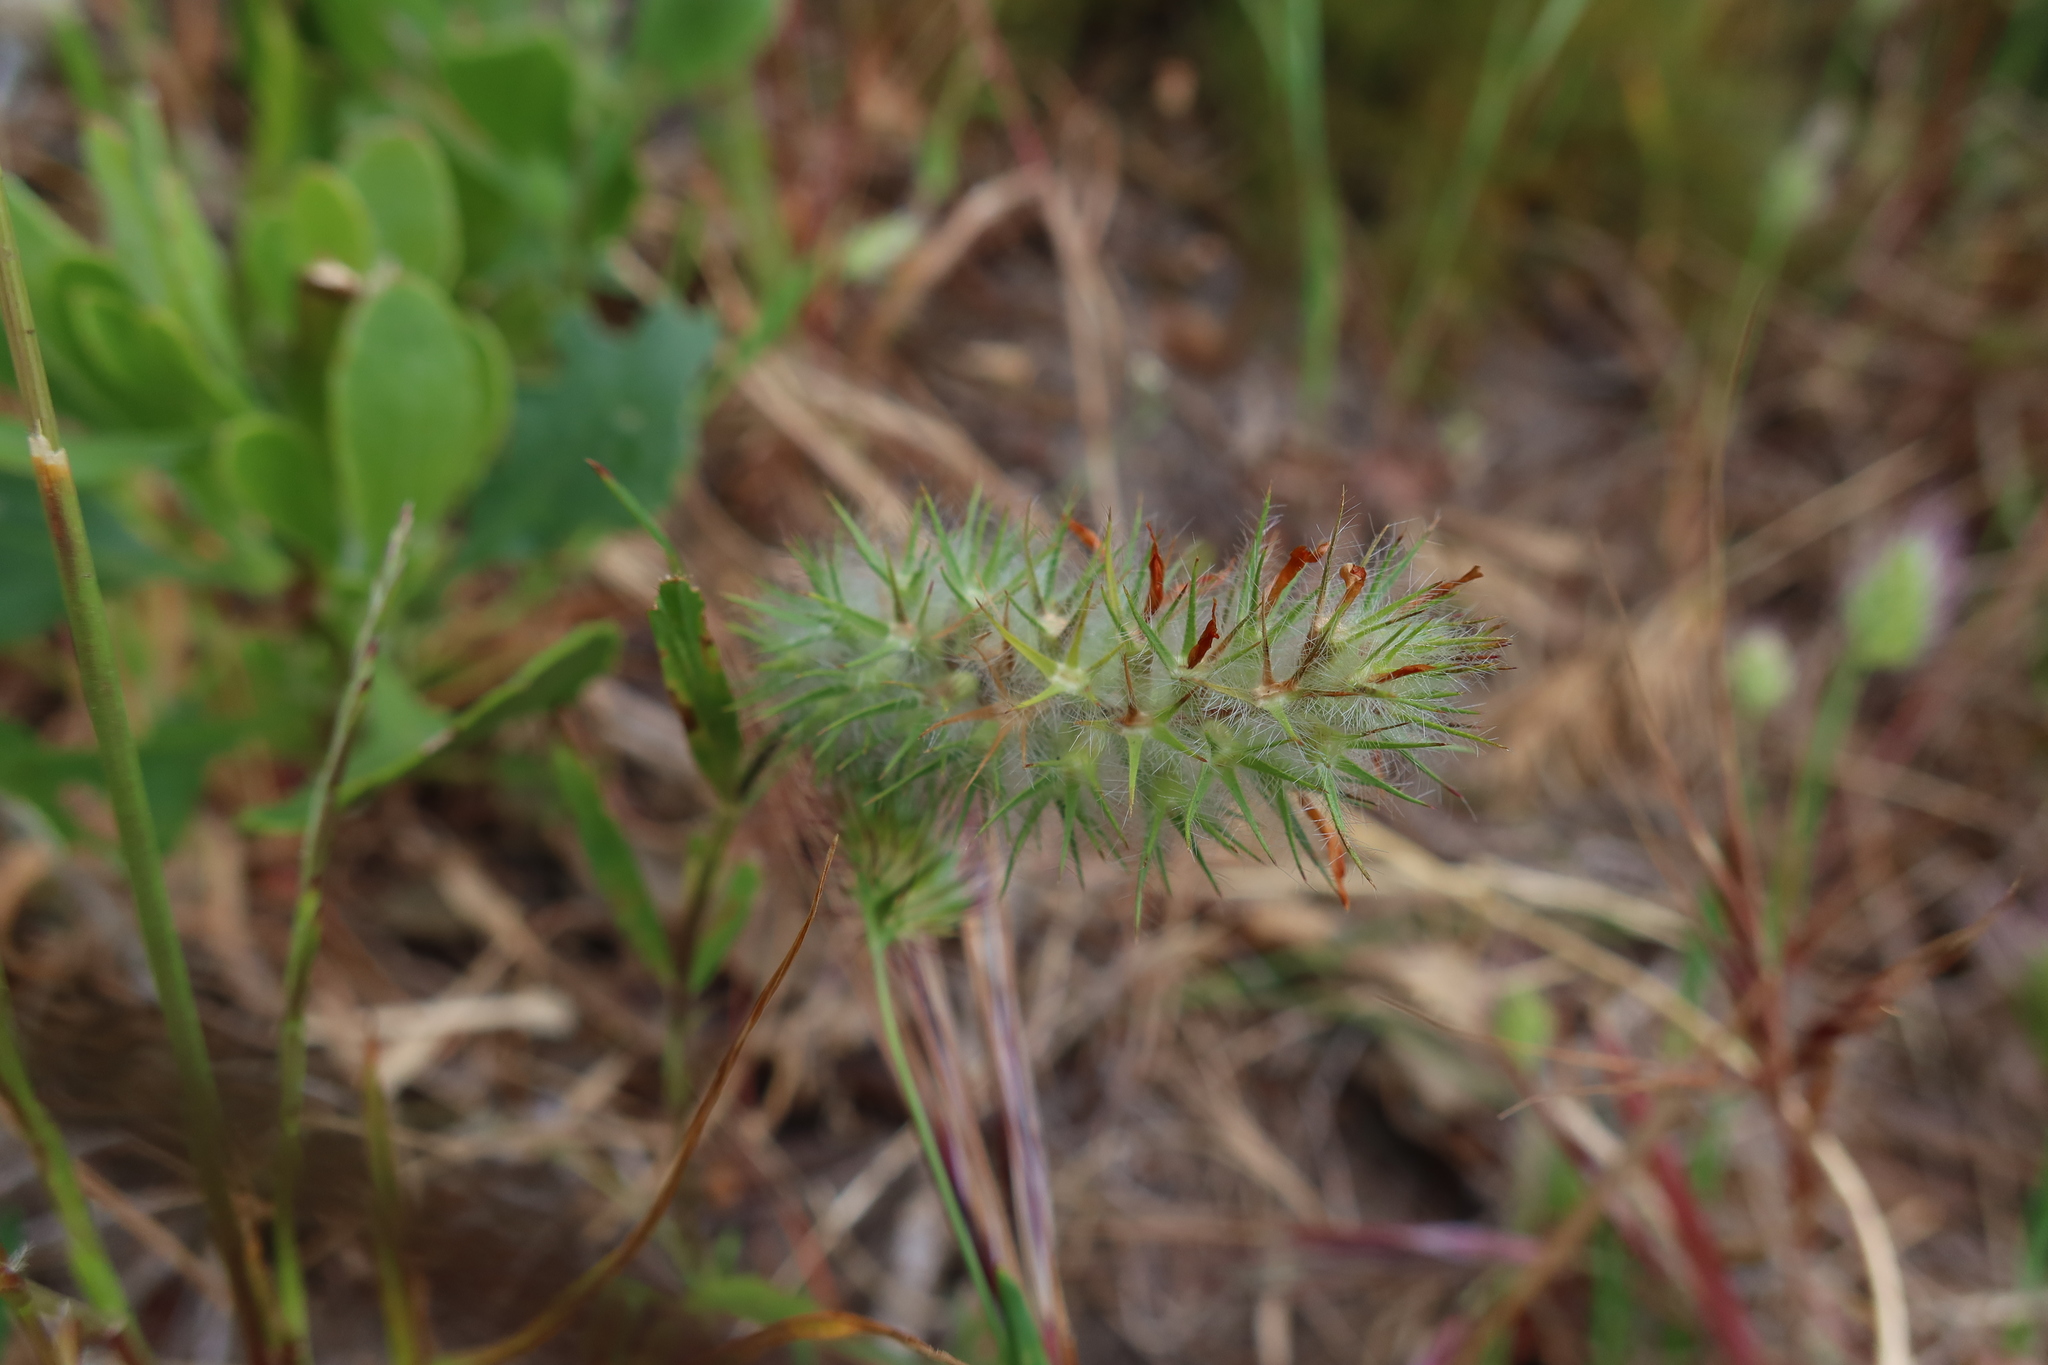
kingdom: Plantae
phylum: Tracheophyta
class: Magnoliopsida
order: Fabales
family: Fabaceae
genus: Trifolium
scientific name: Trifolium angustifolium
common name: Narrow clover
